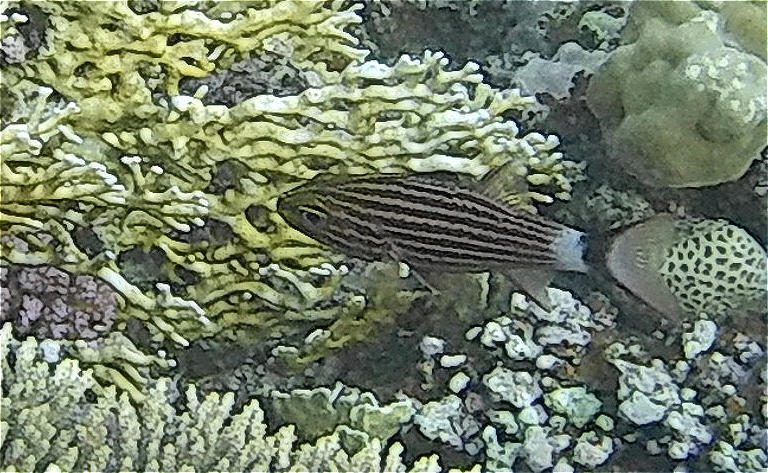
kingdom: Animalia
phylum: Chordata
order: Perciformes
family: Apogonidae
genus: Cheilodipterus
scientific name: Cheilodipterus macrodon
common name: Eight-lined cardinalfish
